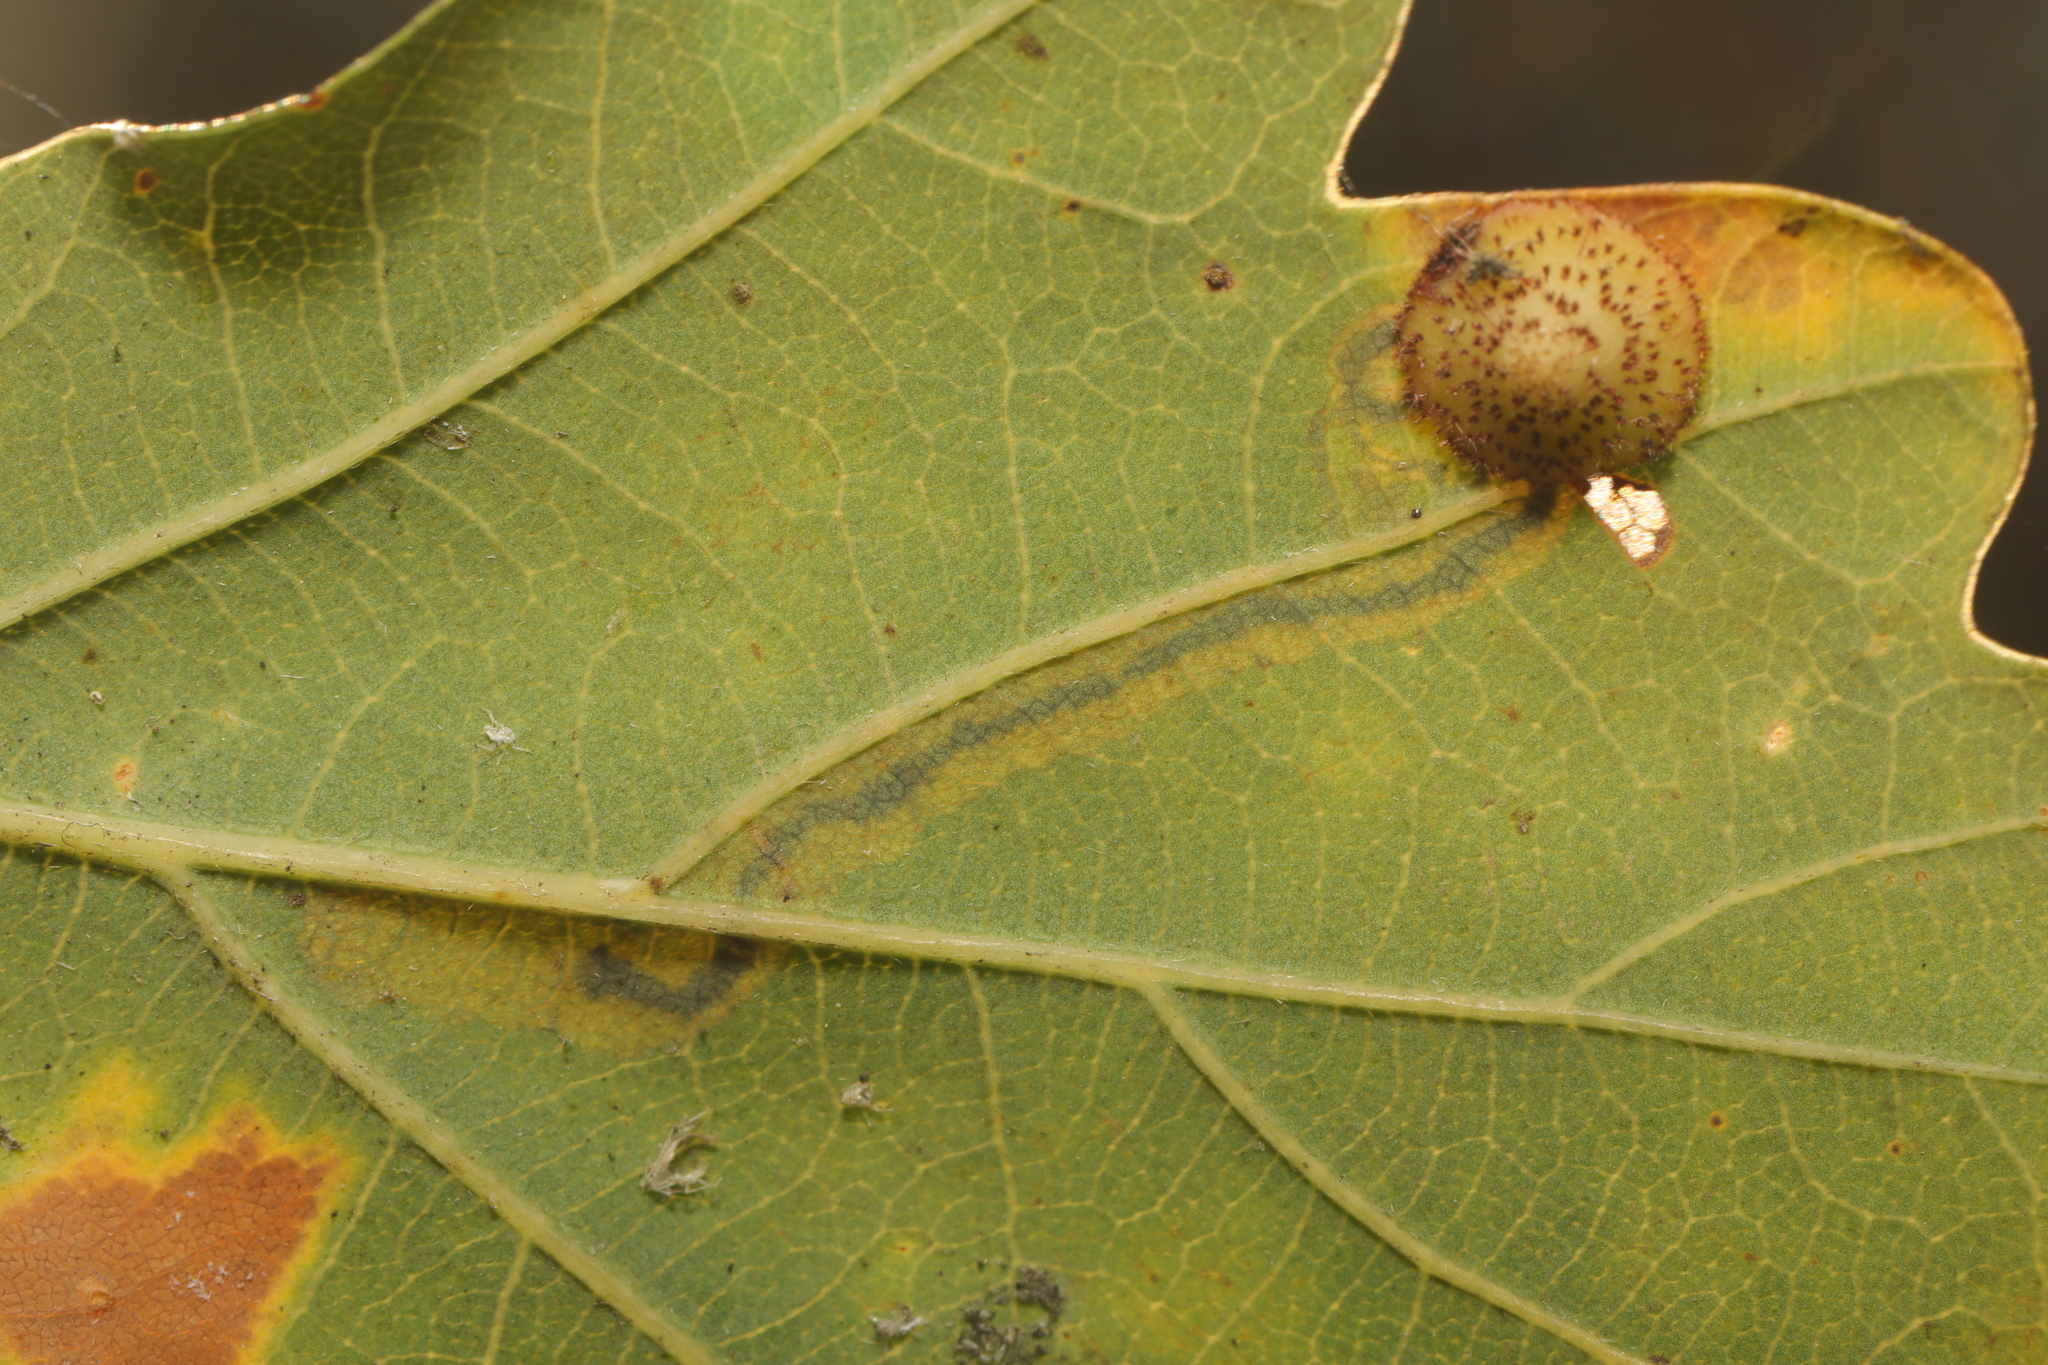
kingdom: Animalia
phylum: Arthropoda
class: Insecta
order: Hymenoptera
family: Cynipidae
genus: Neuroterus
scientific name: Neuroterus quercusbaccarum
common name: Common spangle gall
